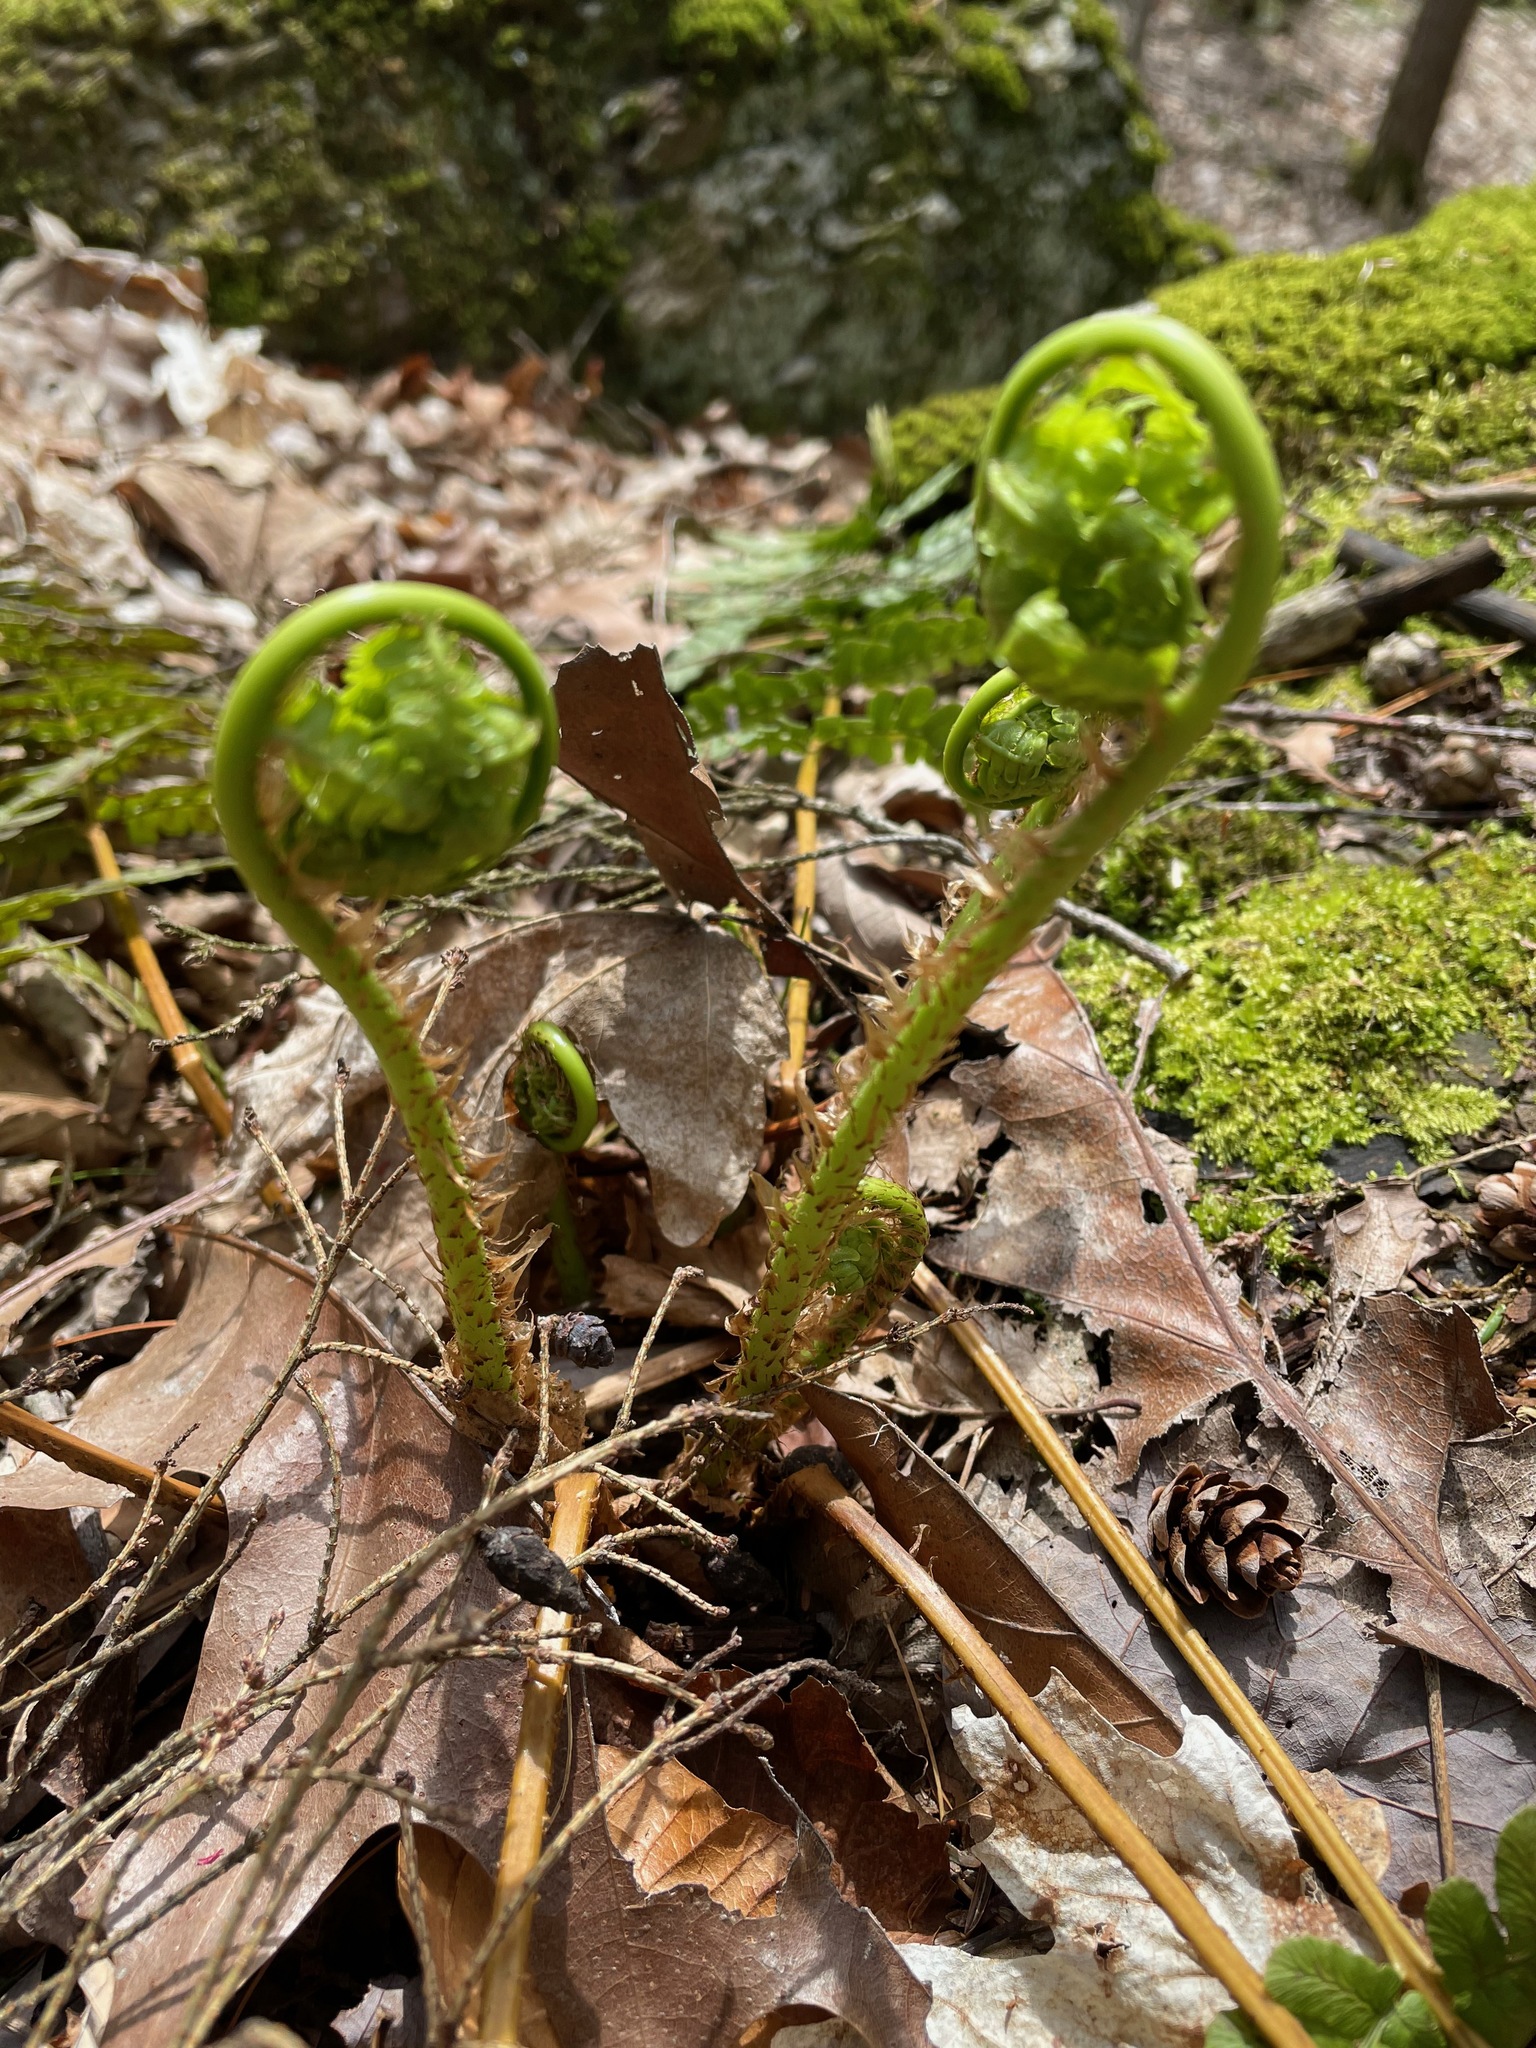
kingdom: Plantae
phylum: Tracheophyta
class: Polypodiopsida
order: Polypodiales
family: Dryopteridaceae
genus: Dryopteris
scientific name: Dryopteris marginalis
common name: Marginal wood fern
